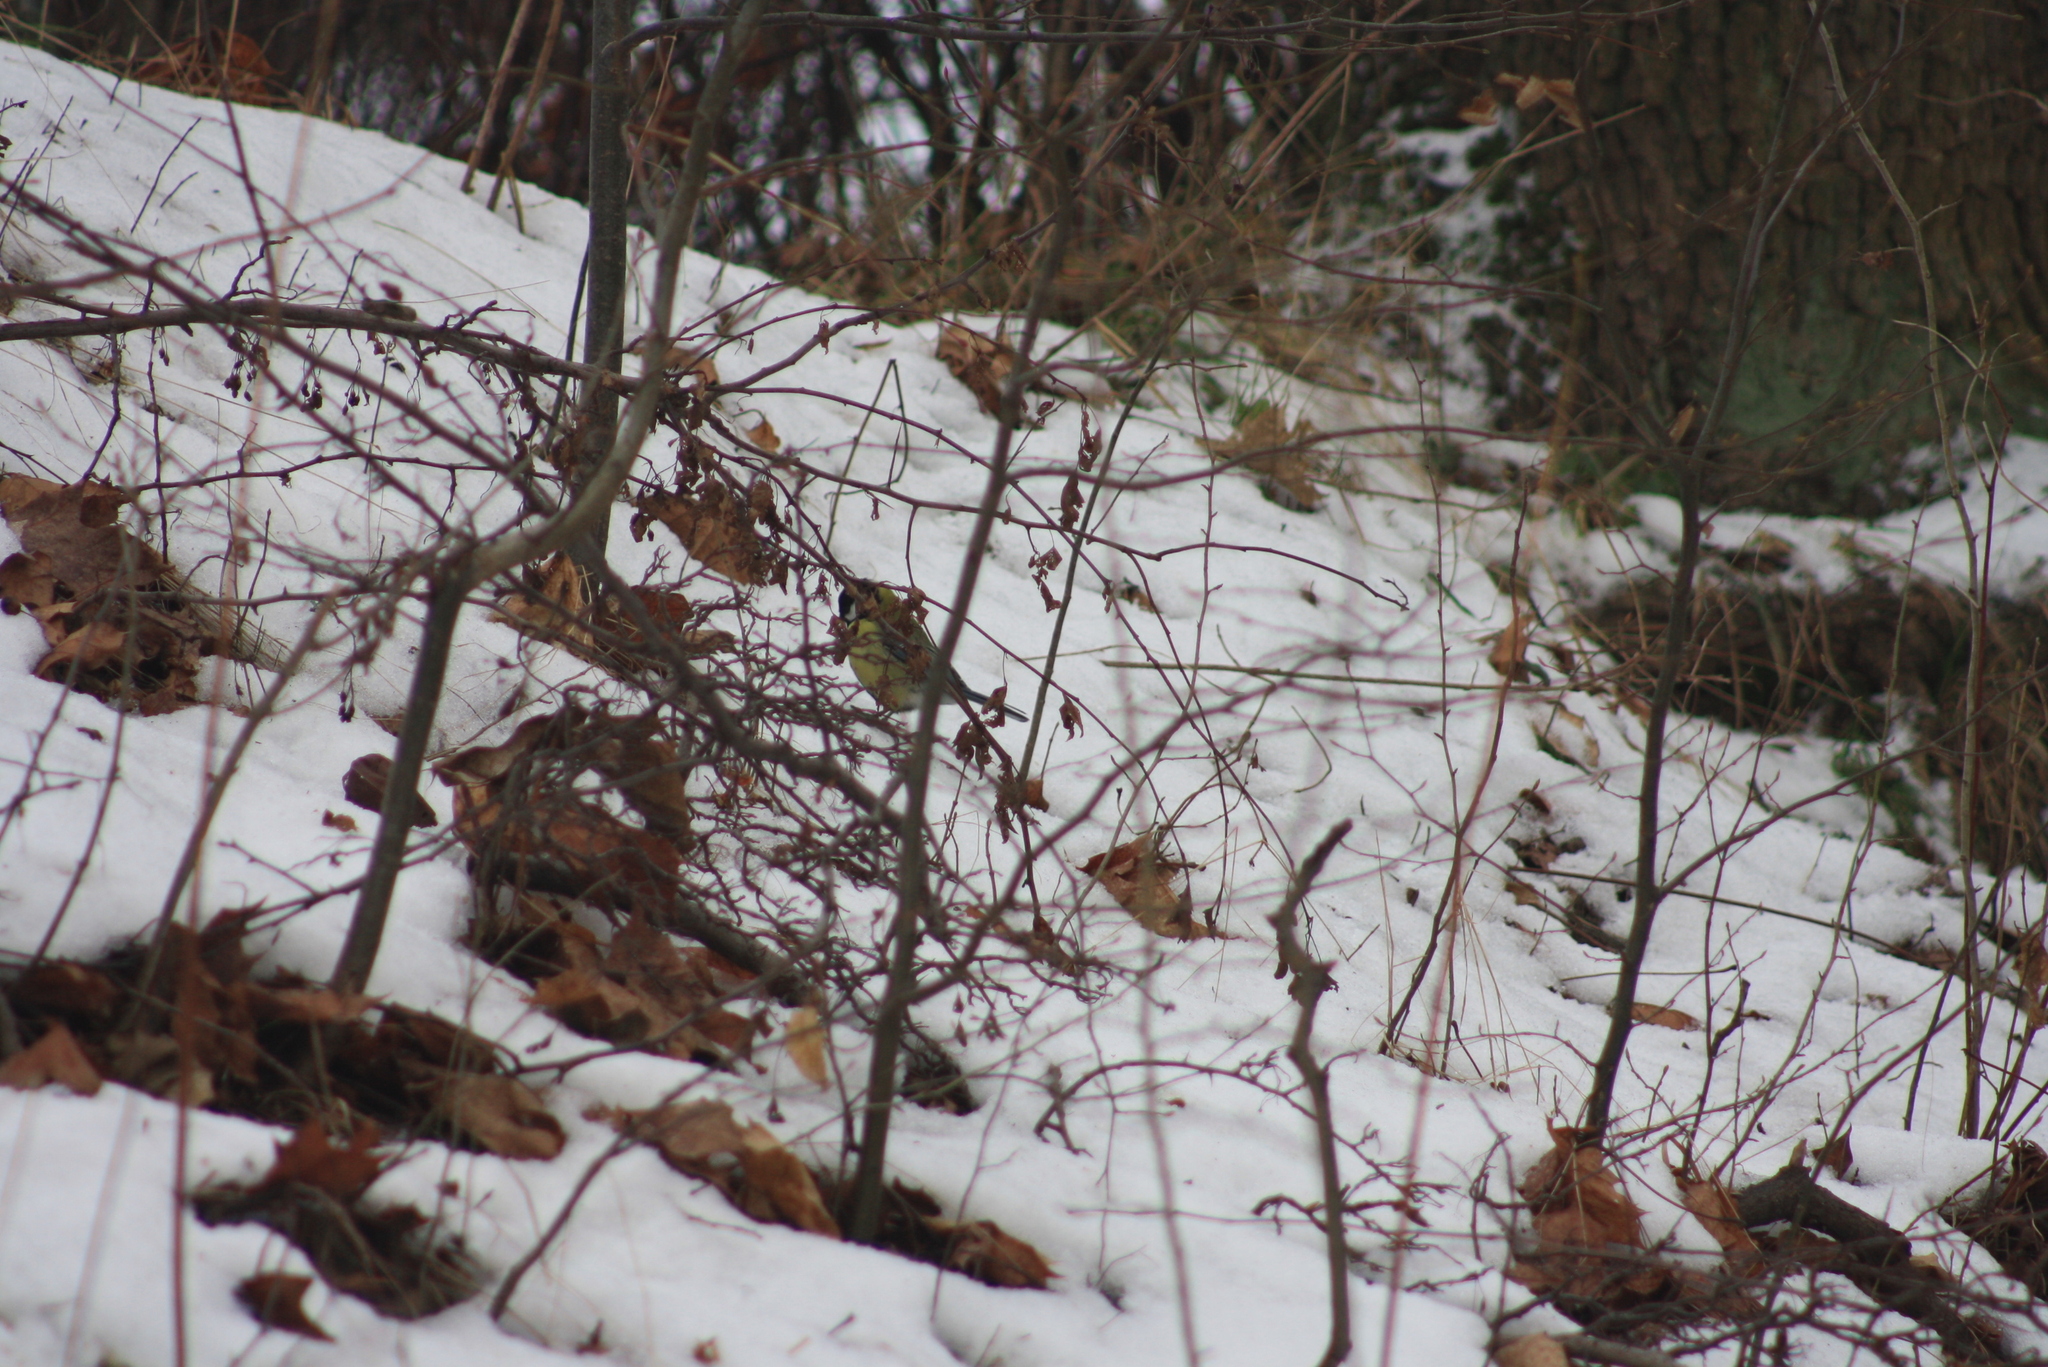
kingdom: Animalia
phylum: Chordata
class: Aves
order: Passeriformes
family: Paridae
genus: Parus
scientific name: Parus major
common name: Great tit
